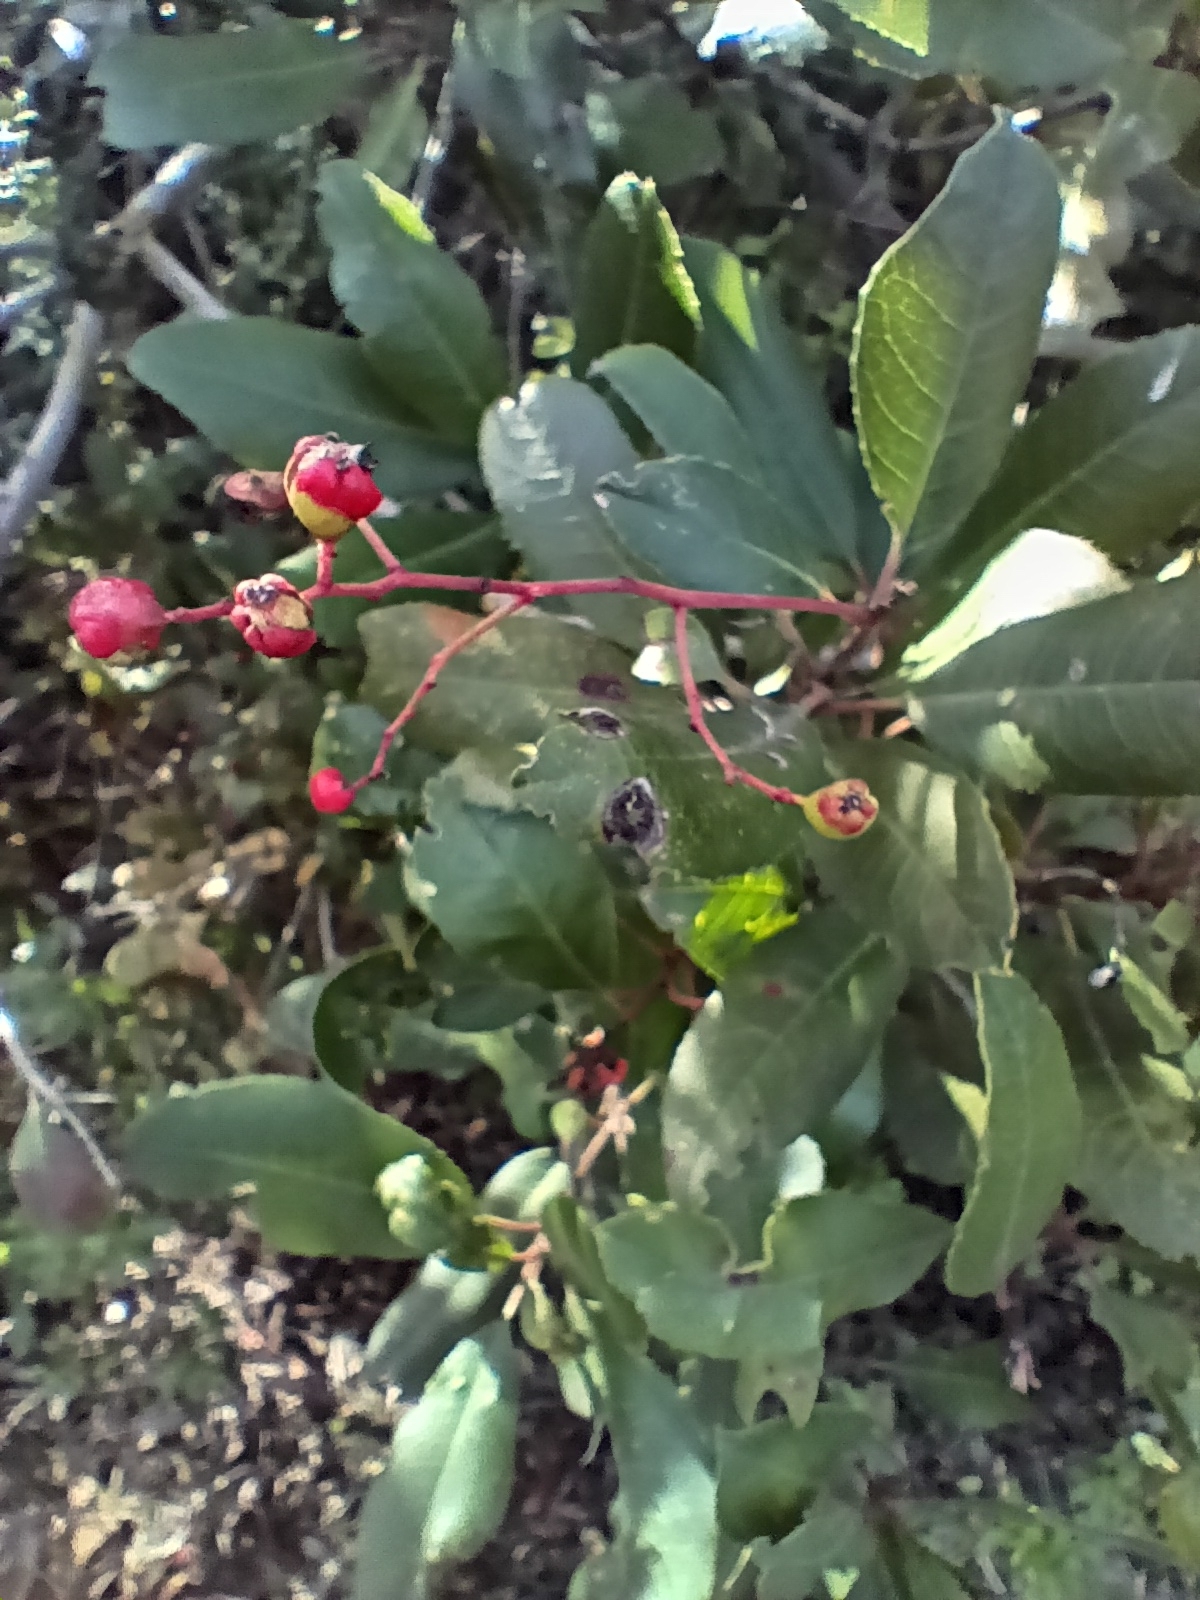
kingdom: Plantae
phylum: Tracheophyta
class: Magnoliopsida
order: Rosales
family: Rosaceae
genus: Heteromeles
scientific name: Heteromeles arbutifolia
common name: California-holly
